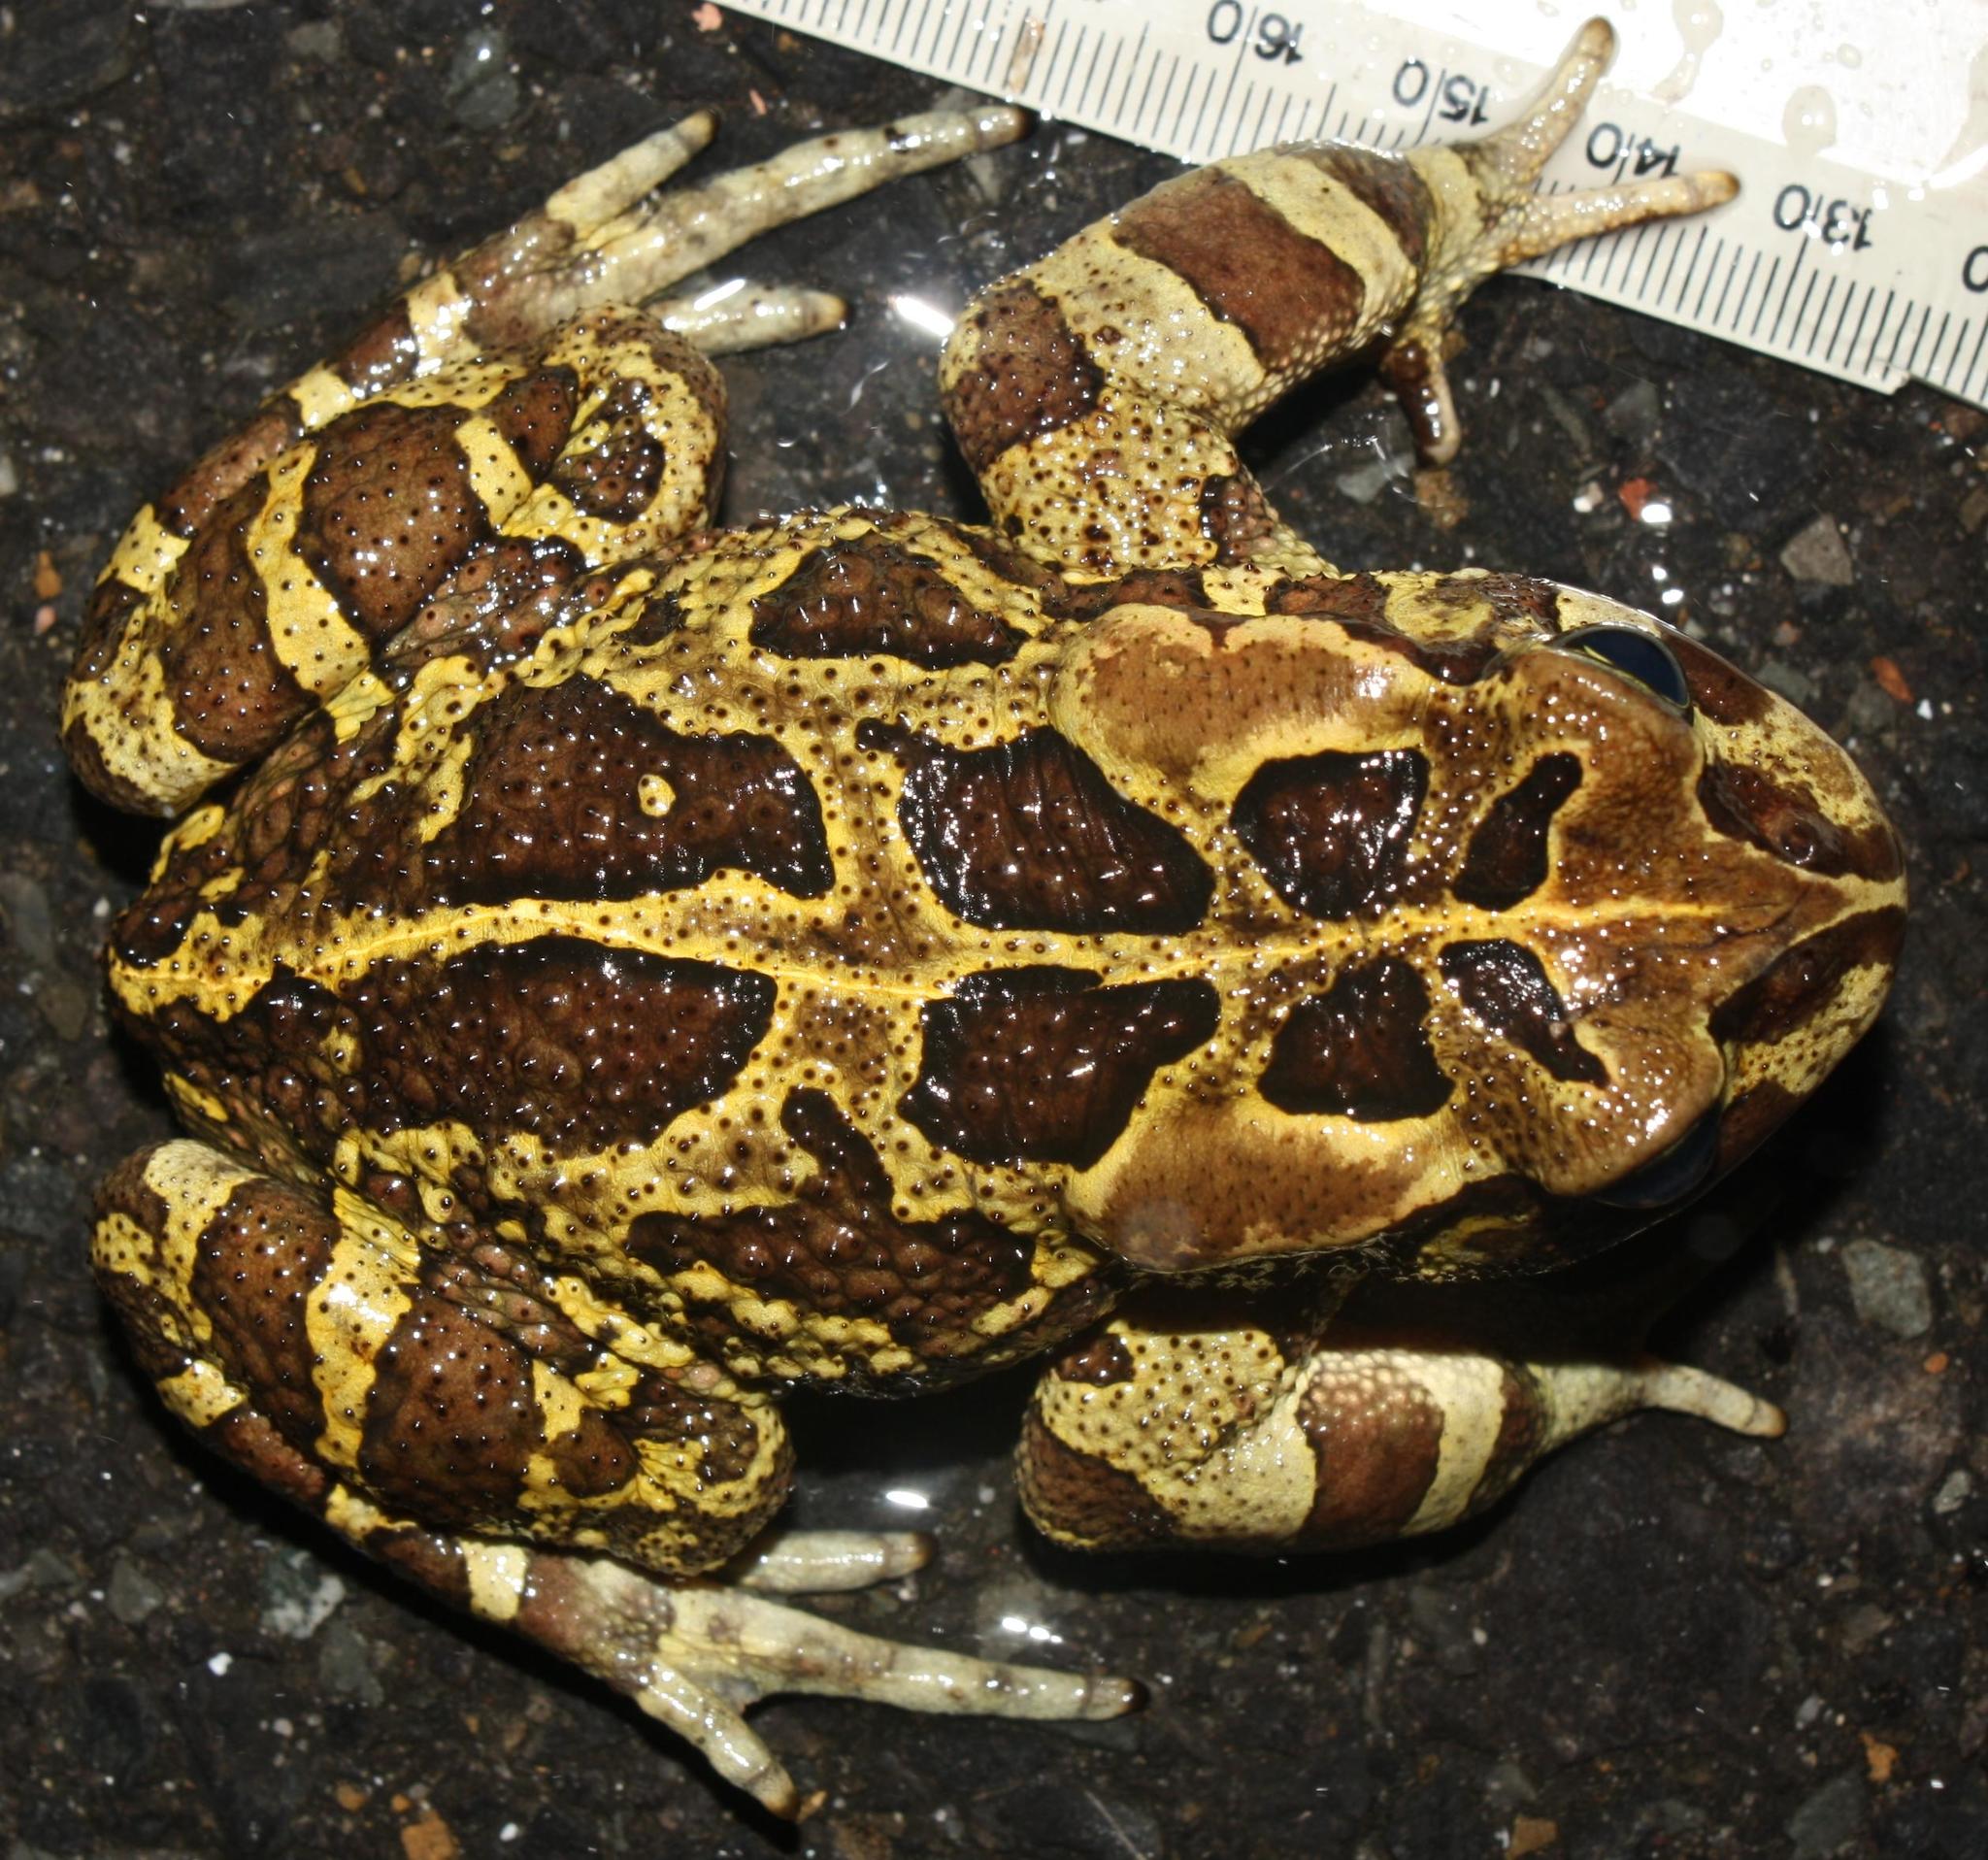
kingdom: Animalia
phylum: Chordata
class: Amphibia
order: Anura
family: Bufonidae
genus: Sclerophrys
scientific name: Sclerophrys pantherina
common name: Panther toad
